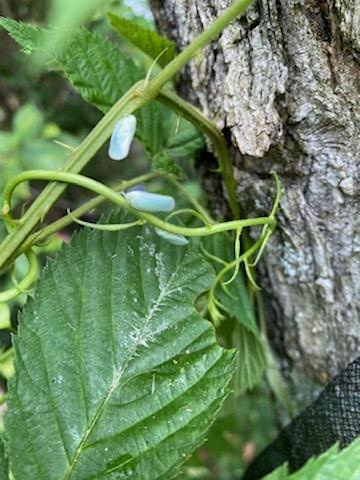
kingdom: Animalia
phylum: Arthropoda
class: Insecta
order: Hemiptera
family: Flatidae
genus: Ormenoides
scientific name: Ormenoides venusta
